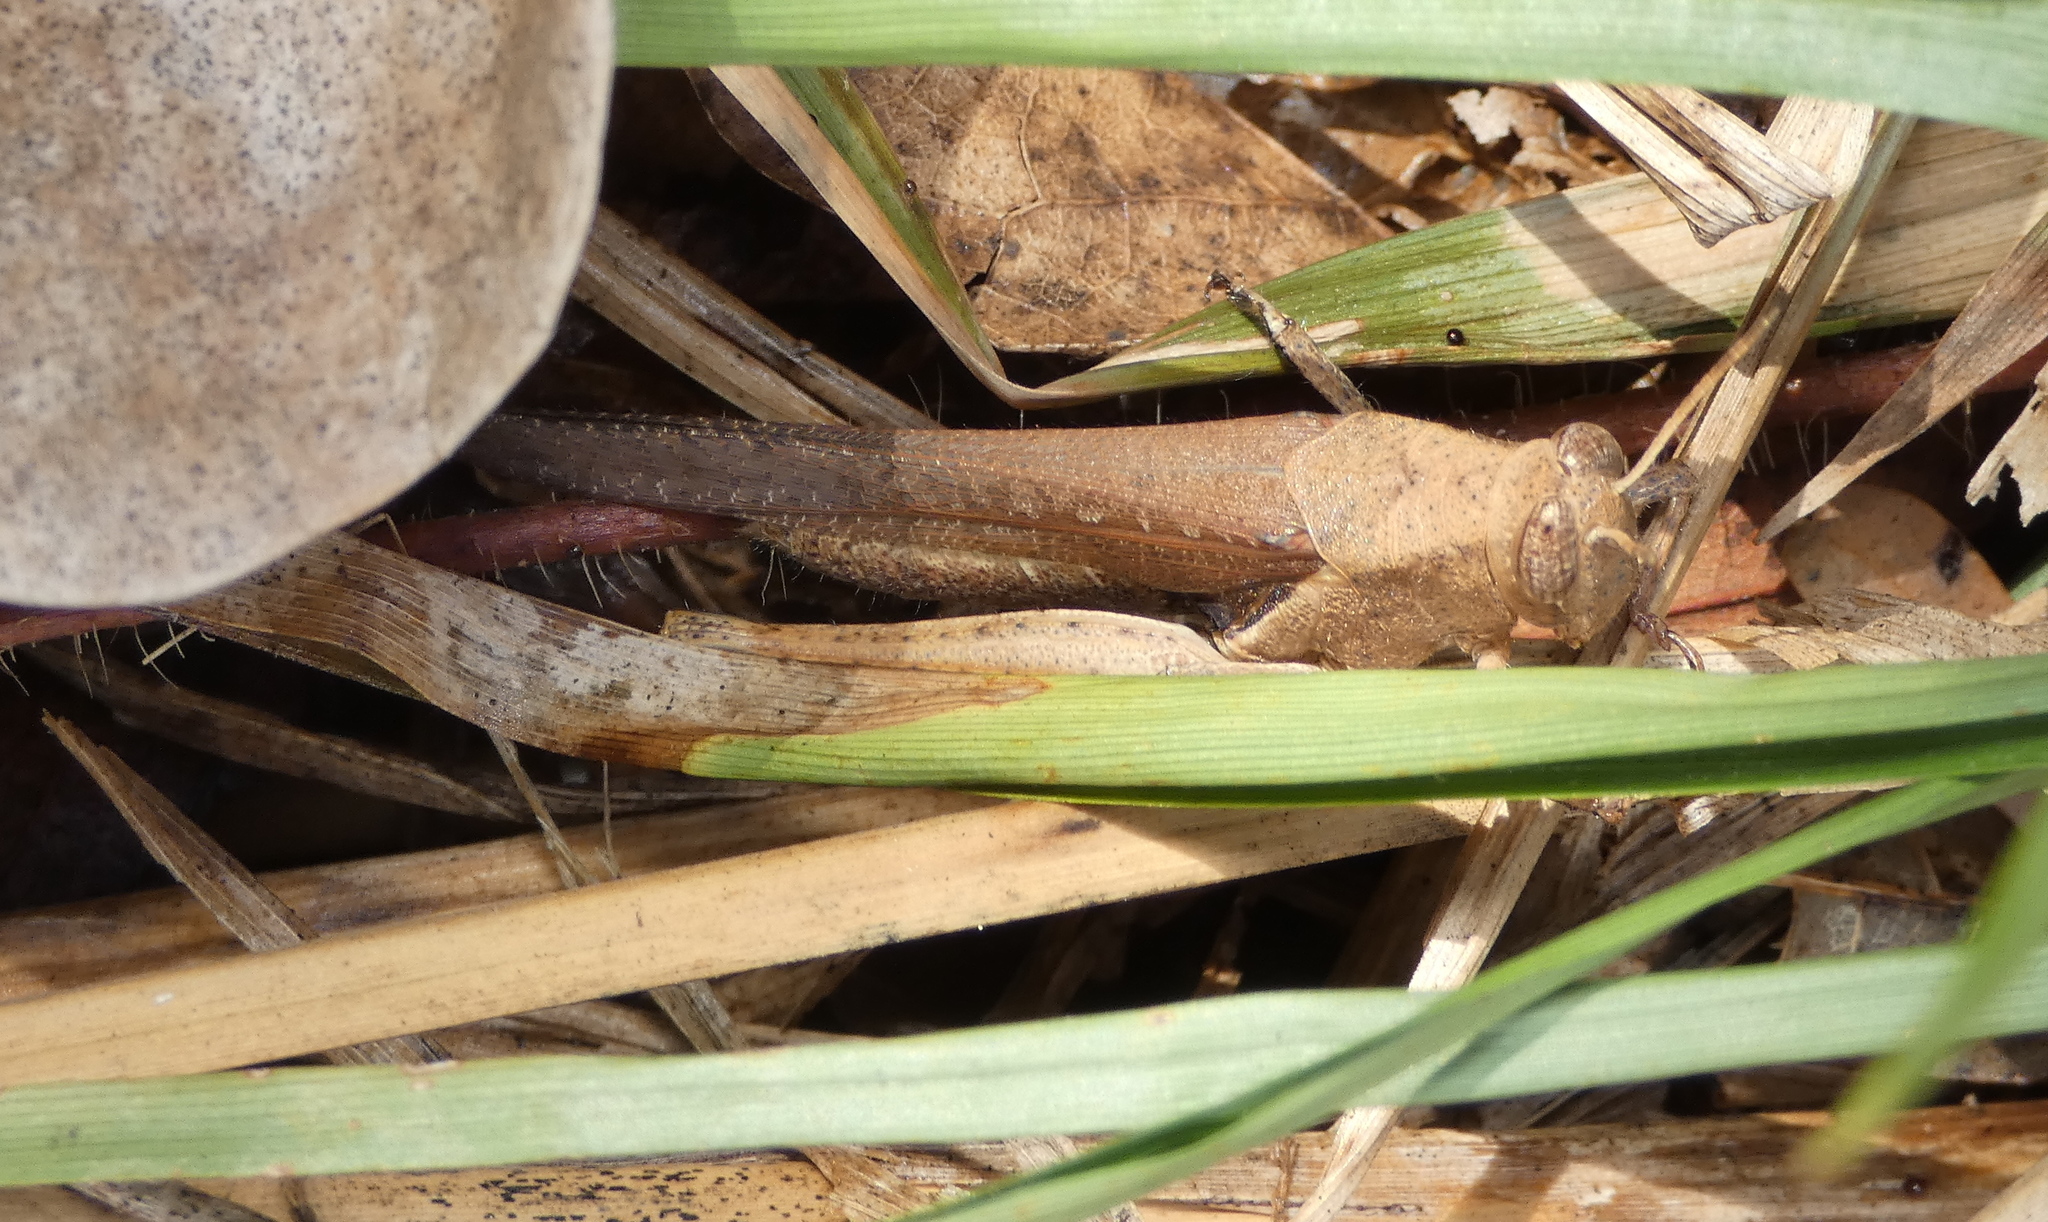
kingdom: Animalia
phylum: Arthropoda
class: Insecta
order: Orthoptera
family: Acrididae
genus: Abracris
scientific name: Abracris flavolineata
